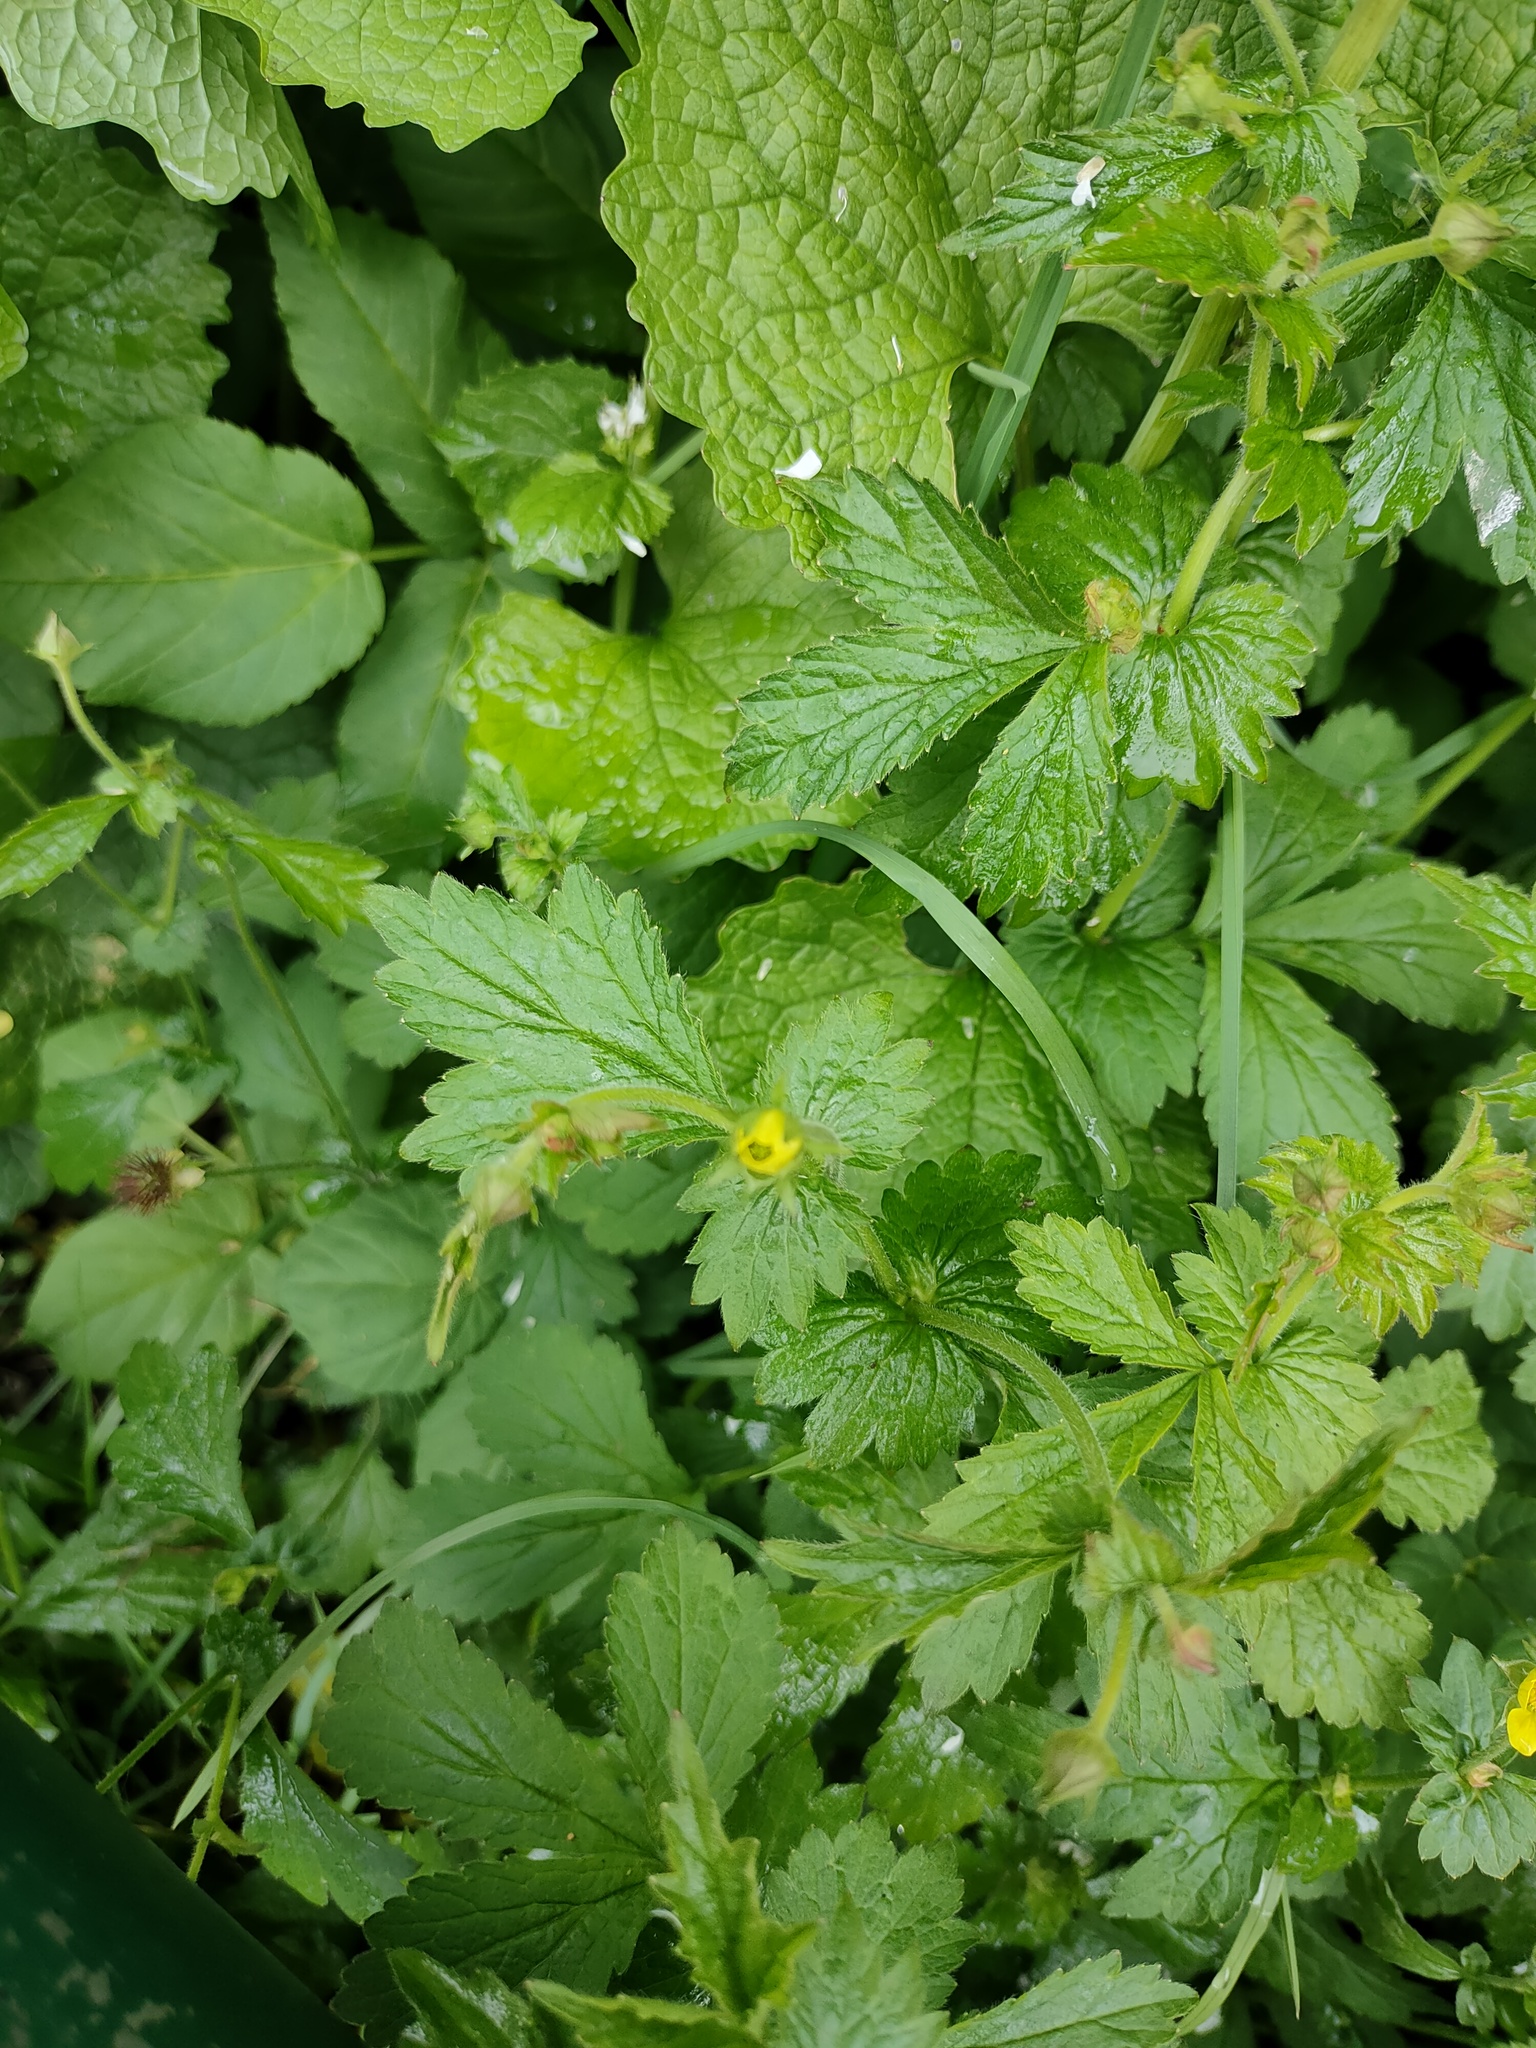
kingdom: Plantae
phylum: Tracheophyta
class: Magnoliopsida
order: Rosales
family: Rosaceae
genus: Geum
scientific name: Geum urbanum
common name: Wood avens
